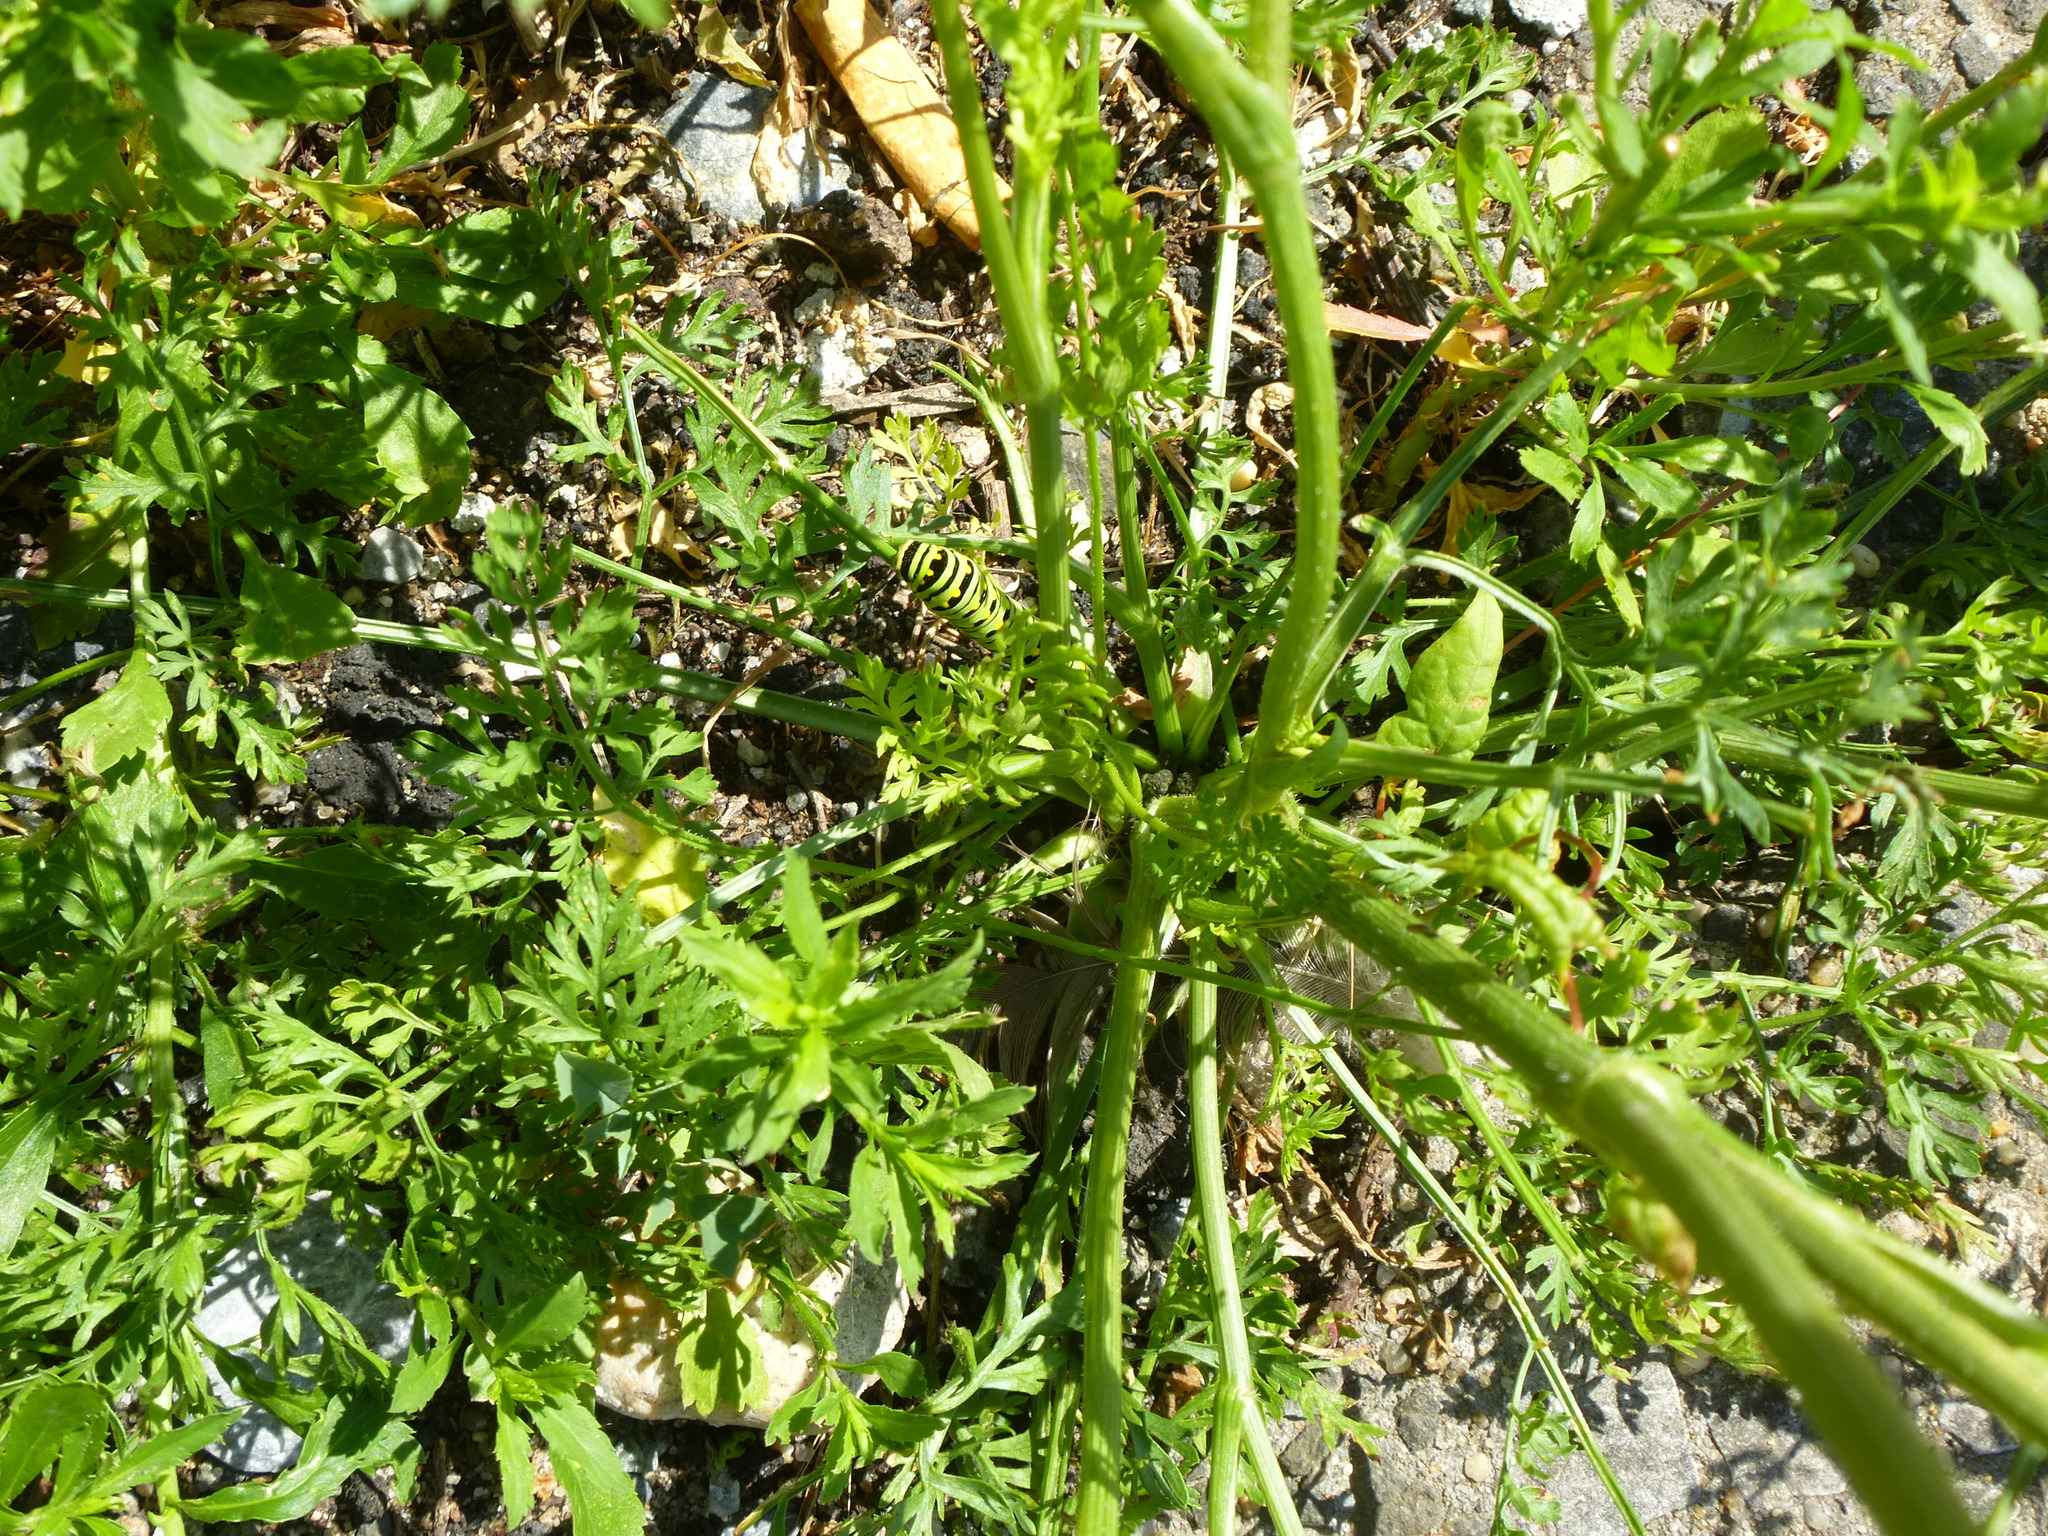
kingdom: Animalia
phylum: Arthropoda
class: Insecta
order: Lepidoptera
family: Papilionidae
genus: Papilio
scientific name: Papilio polyxenes
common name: Black swallowtail
